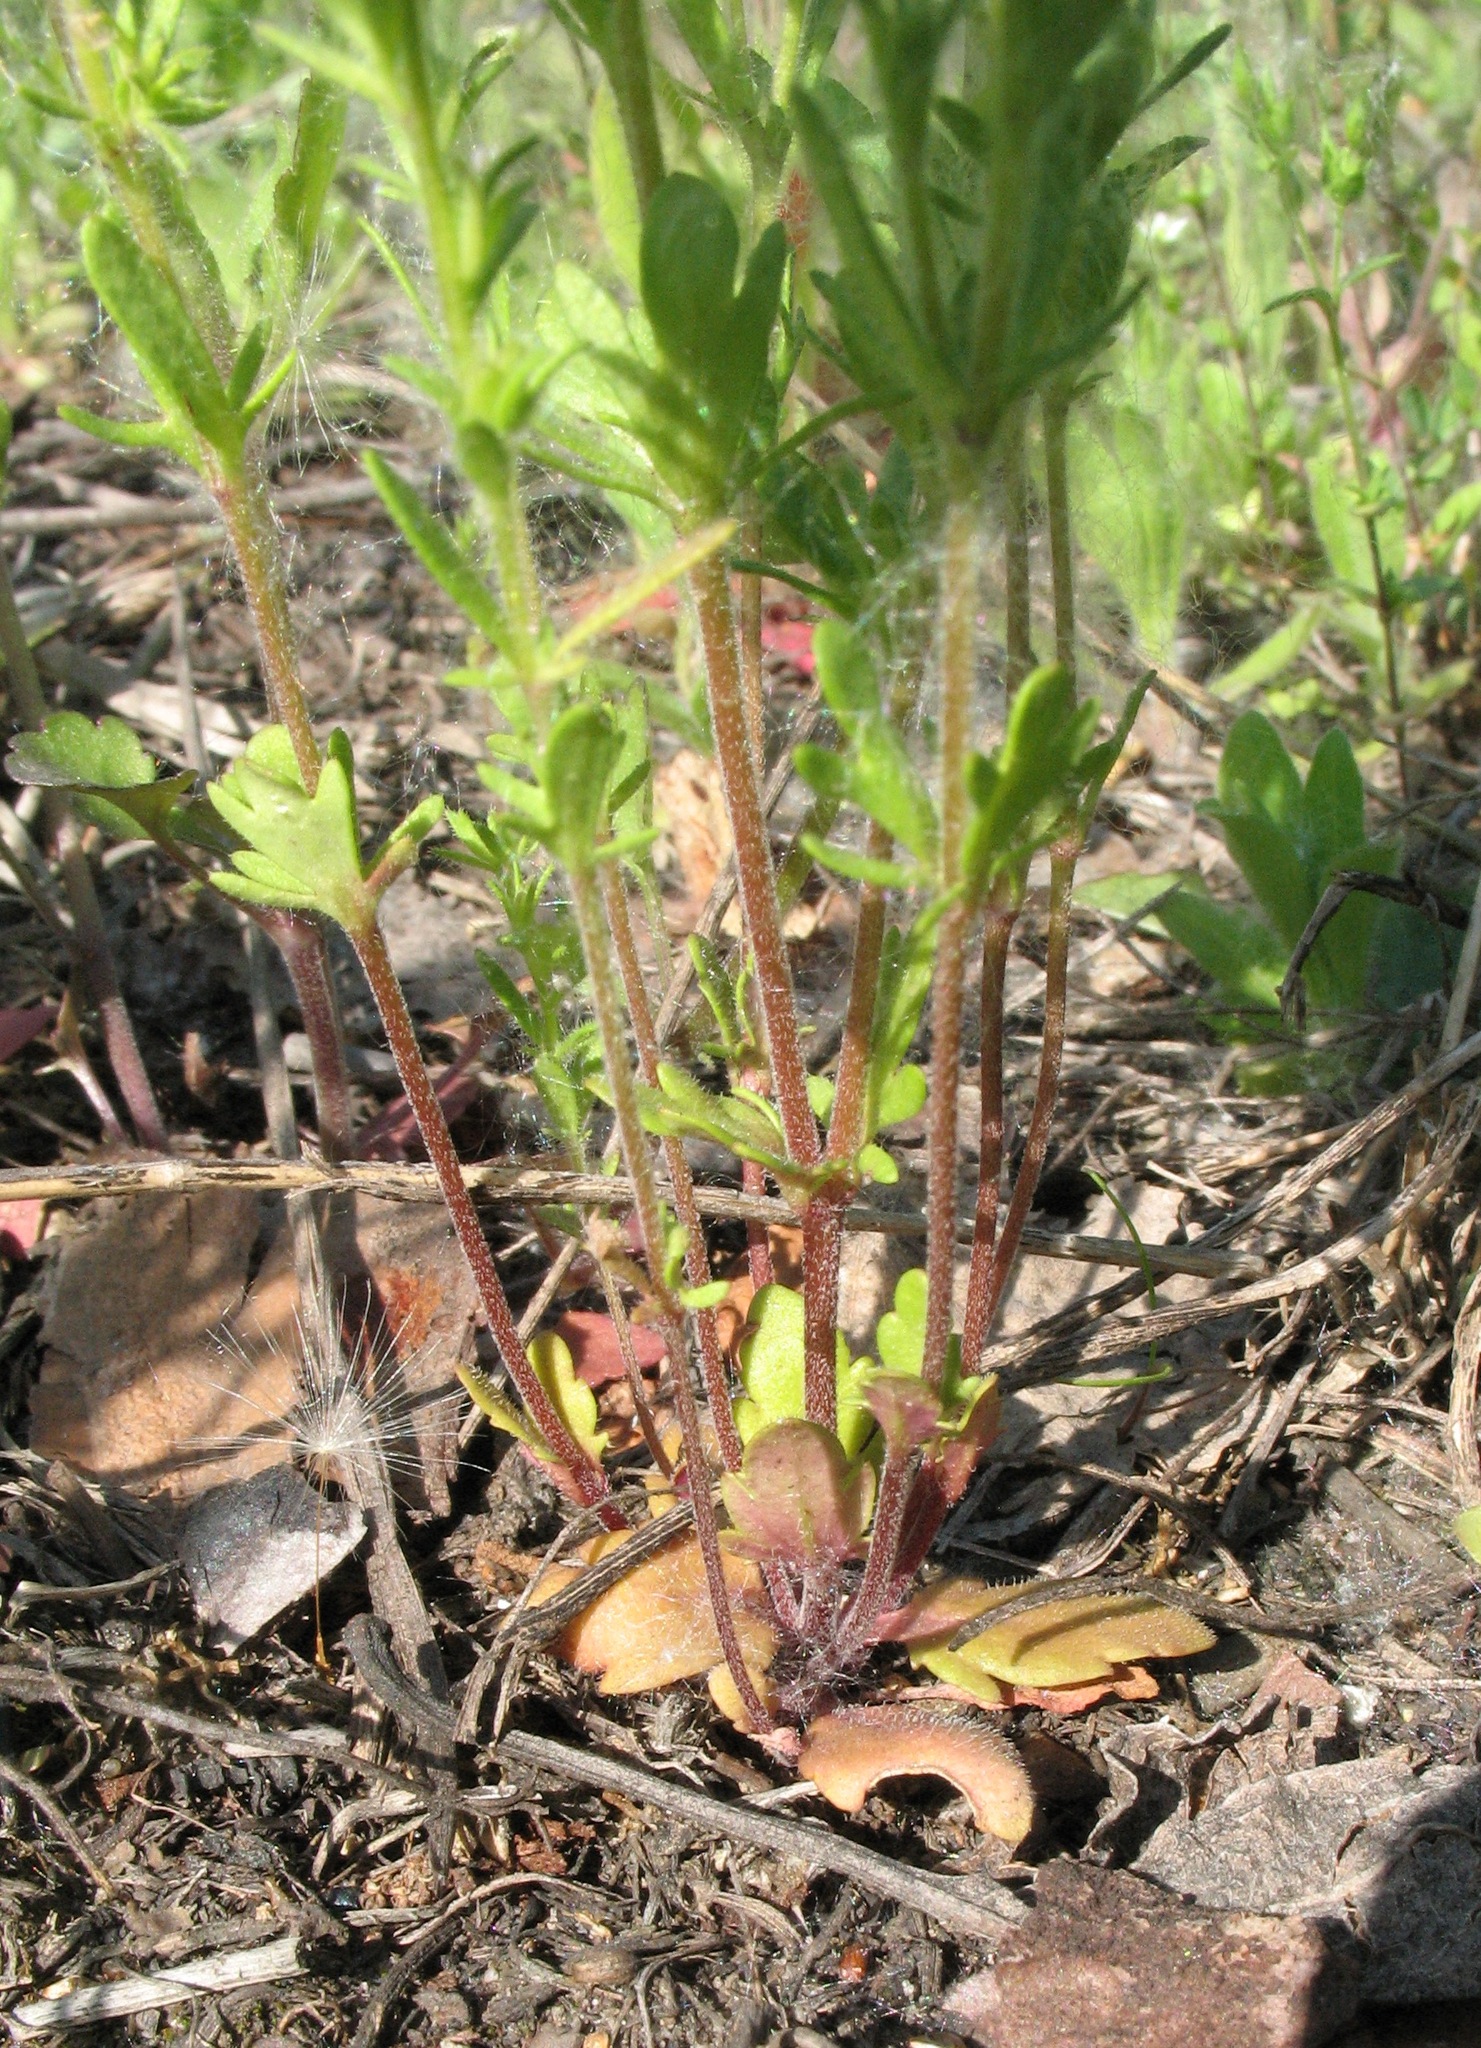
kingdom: Plantae
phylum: Tracheophyta
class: Magnoliopsida
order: Lamiales
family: Plantaginaceae
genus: Veronica
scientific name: Veronica verna
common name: Spring speedwell
